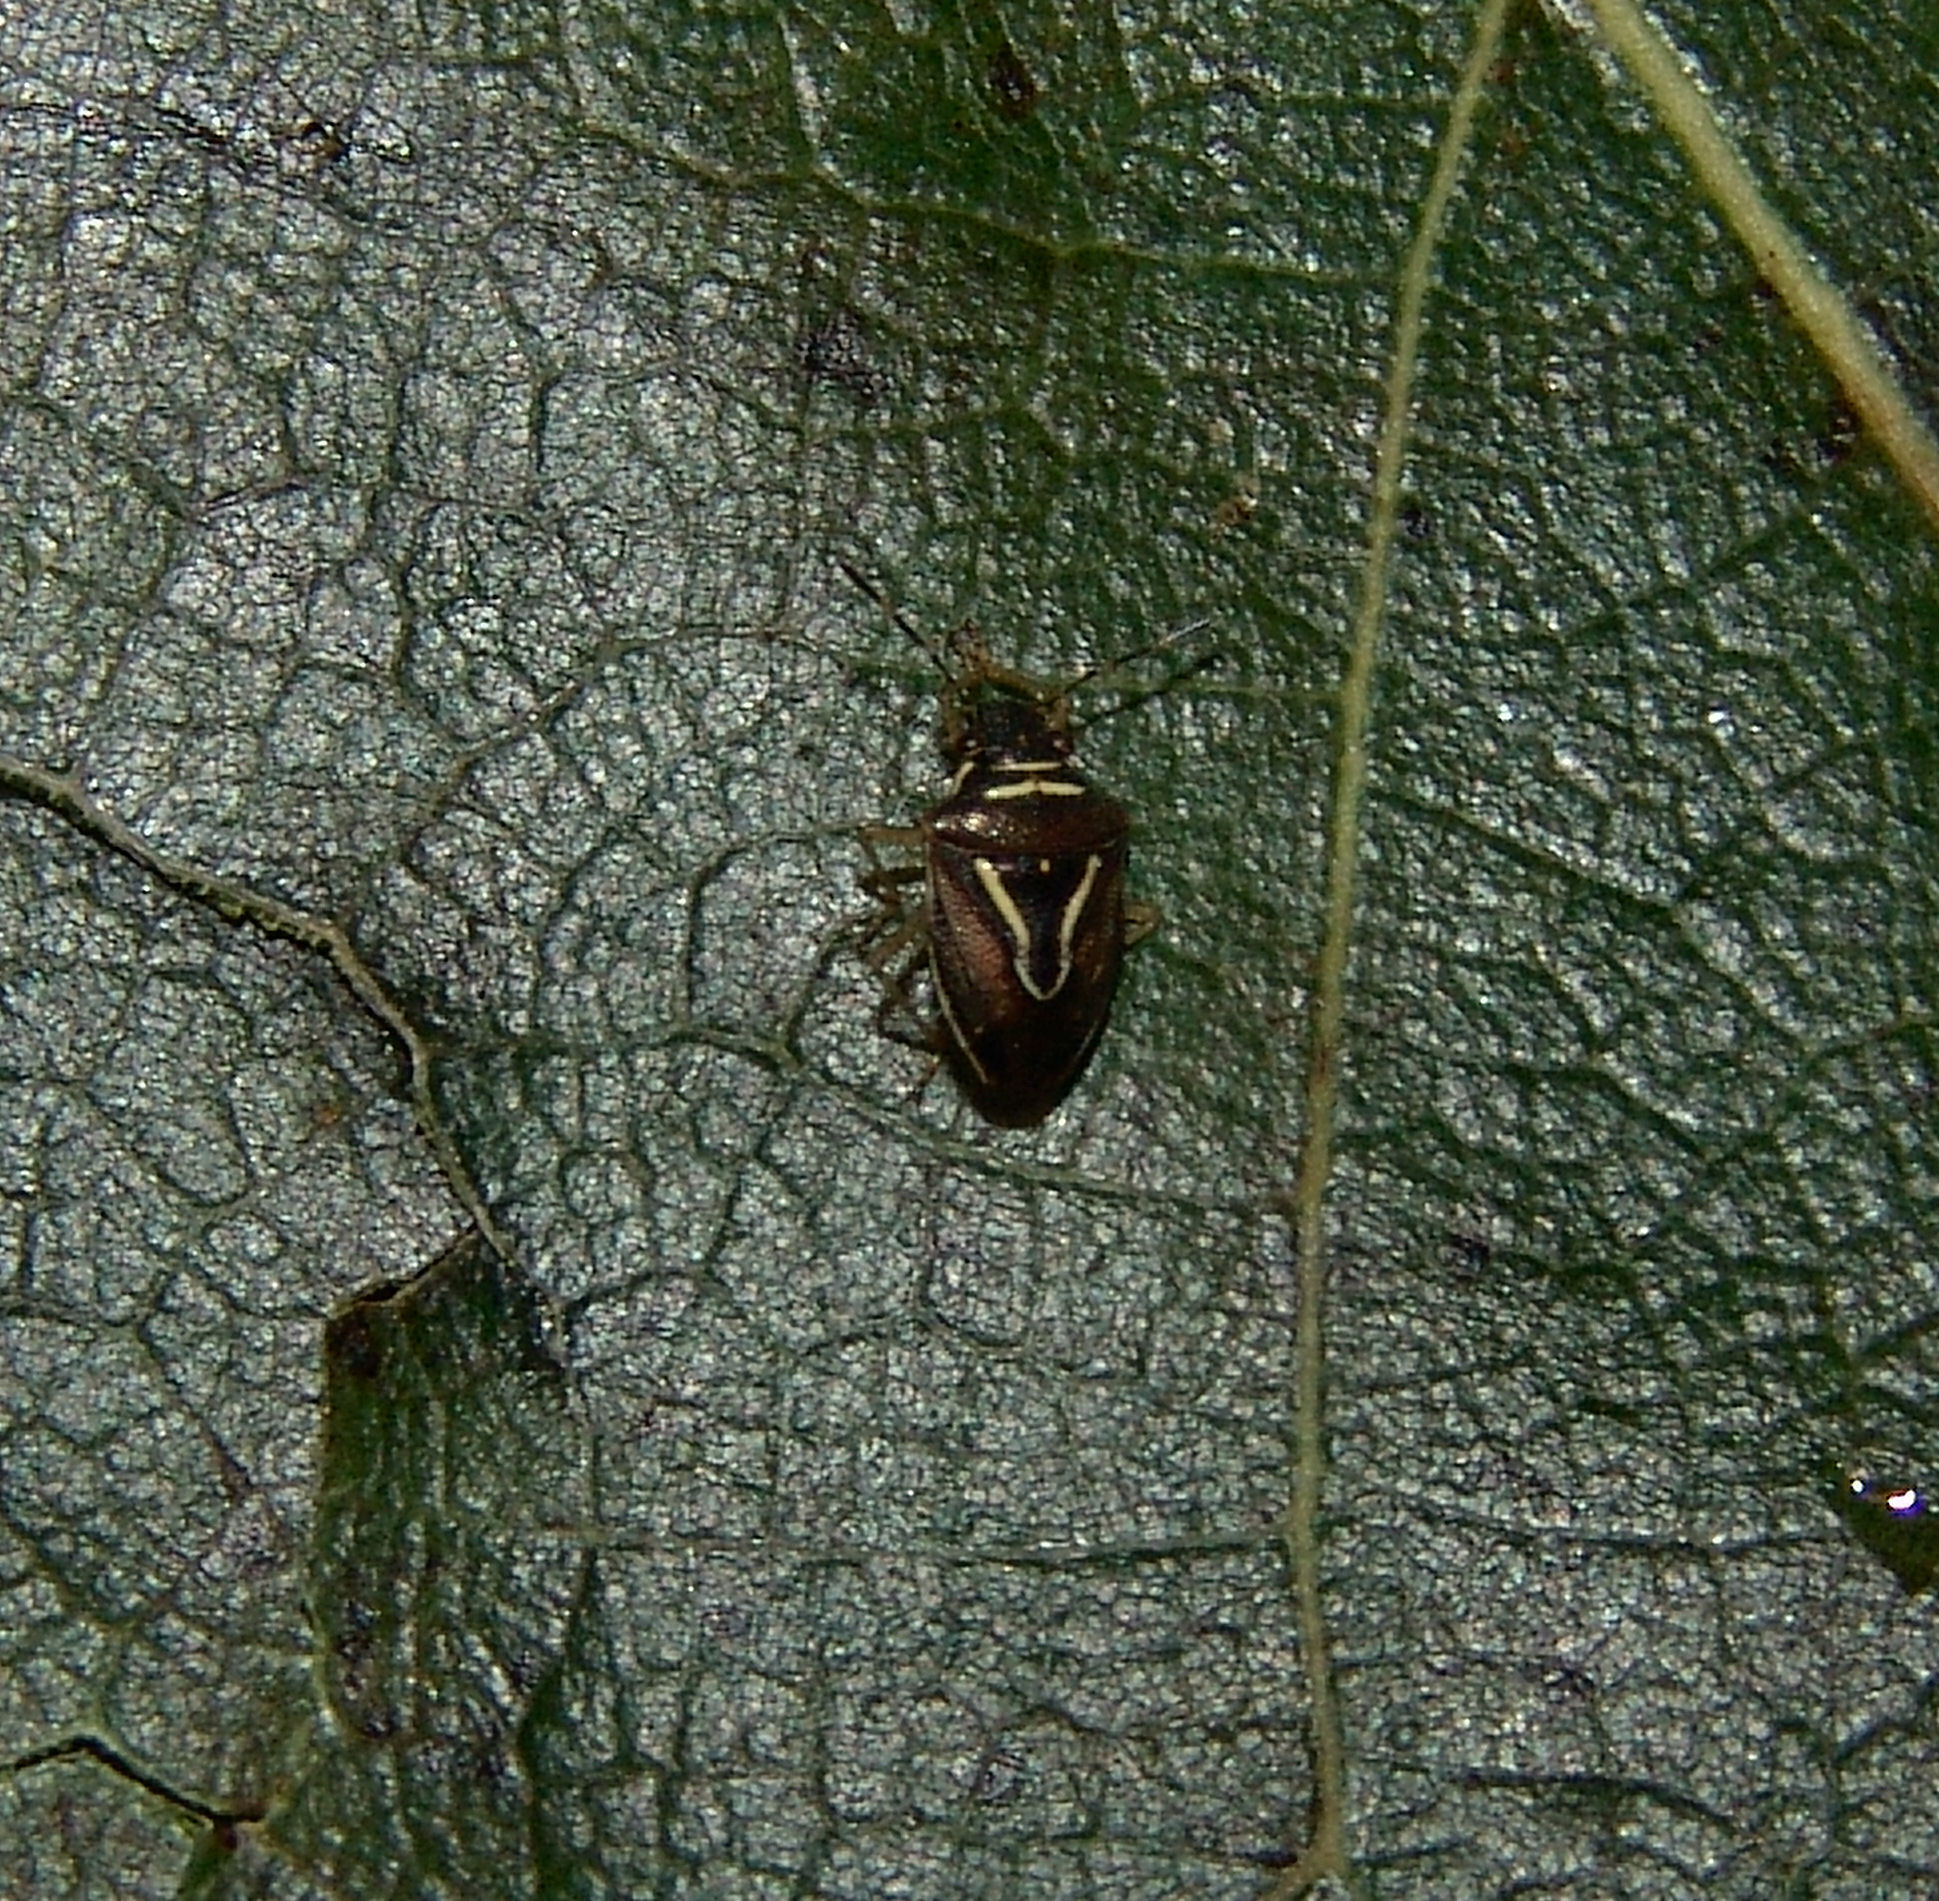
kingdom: Animalia
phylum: Arthropoda
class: Insecta
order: Hemiptera
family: Pentatomidae
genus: Mormidea
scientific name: Mormidea lugens
